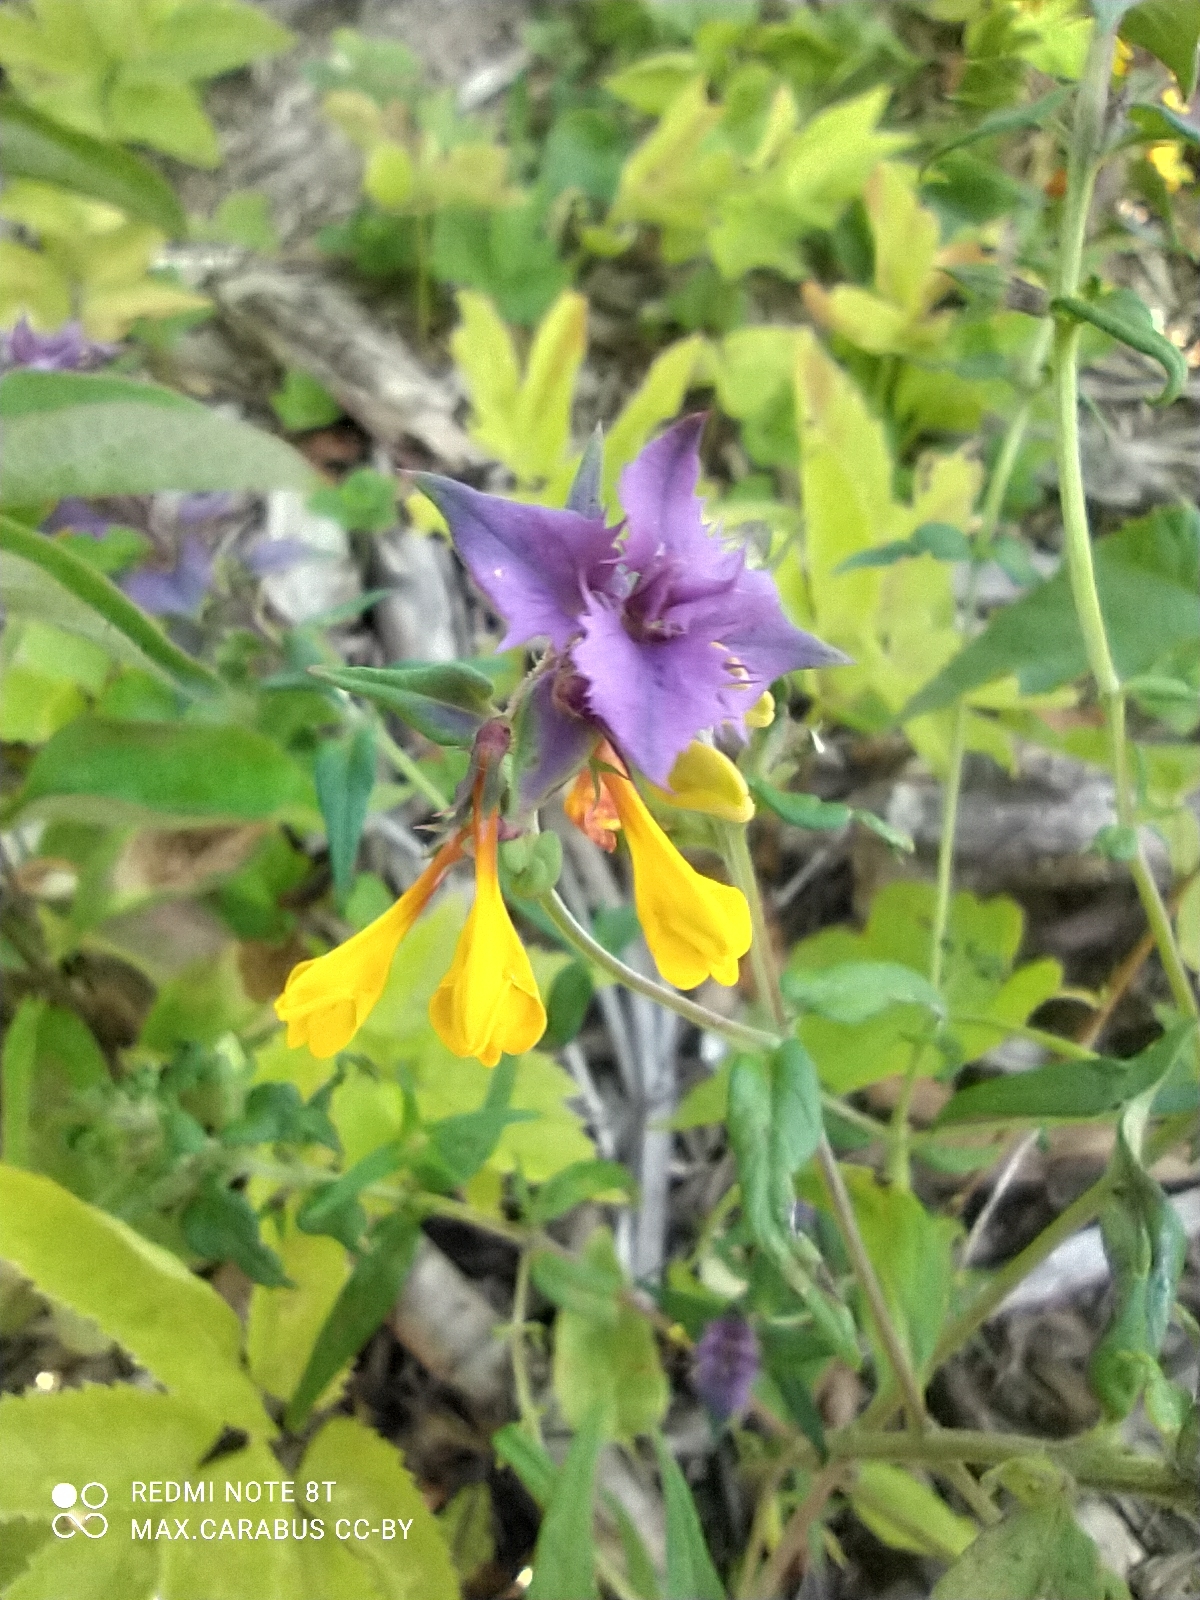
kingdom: Plantae
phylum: Tracheophyta
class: Magnoliopsida
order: Lamiales
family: Orobanchaceae
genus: Melampyrum
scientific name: Melampyrum nemorosum
